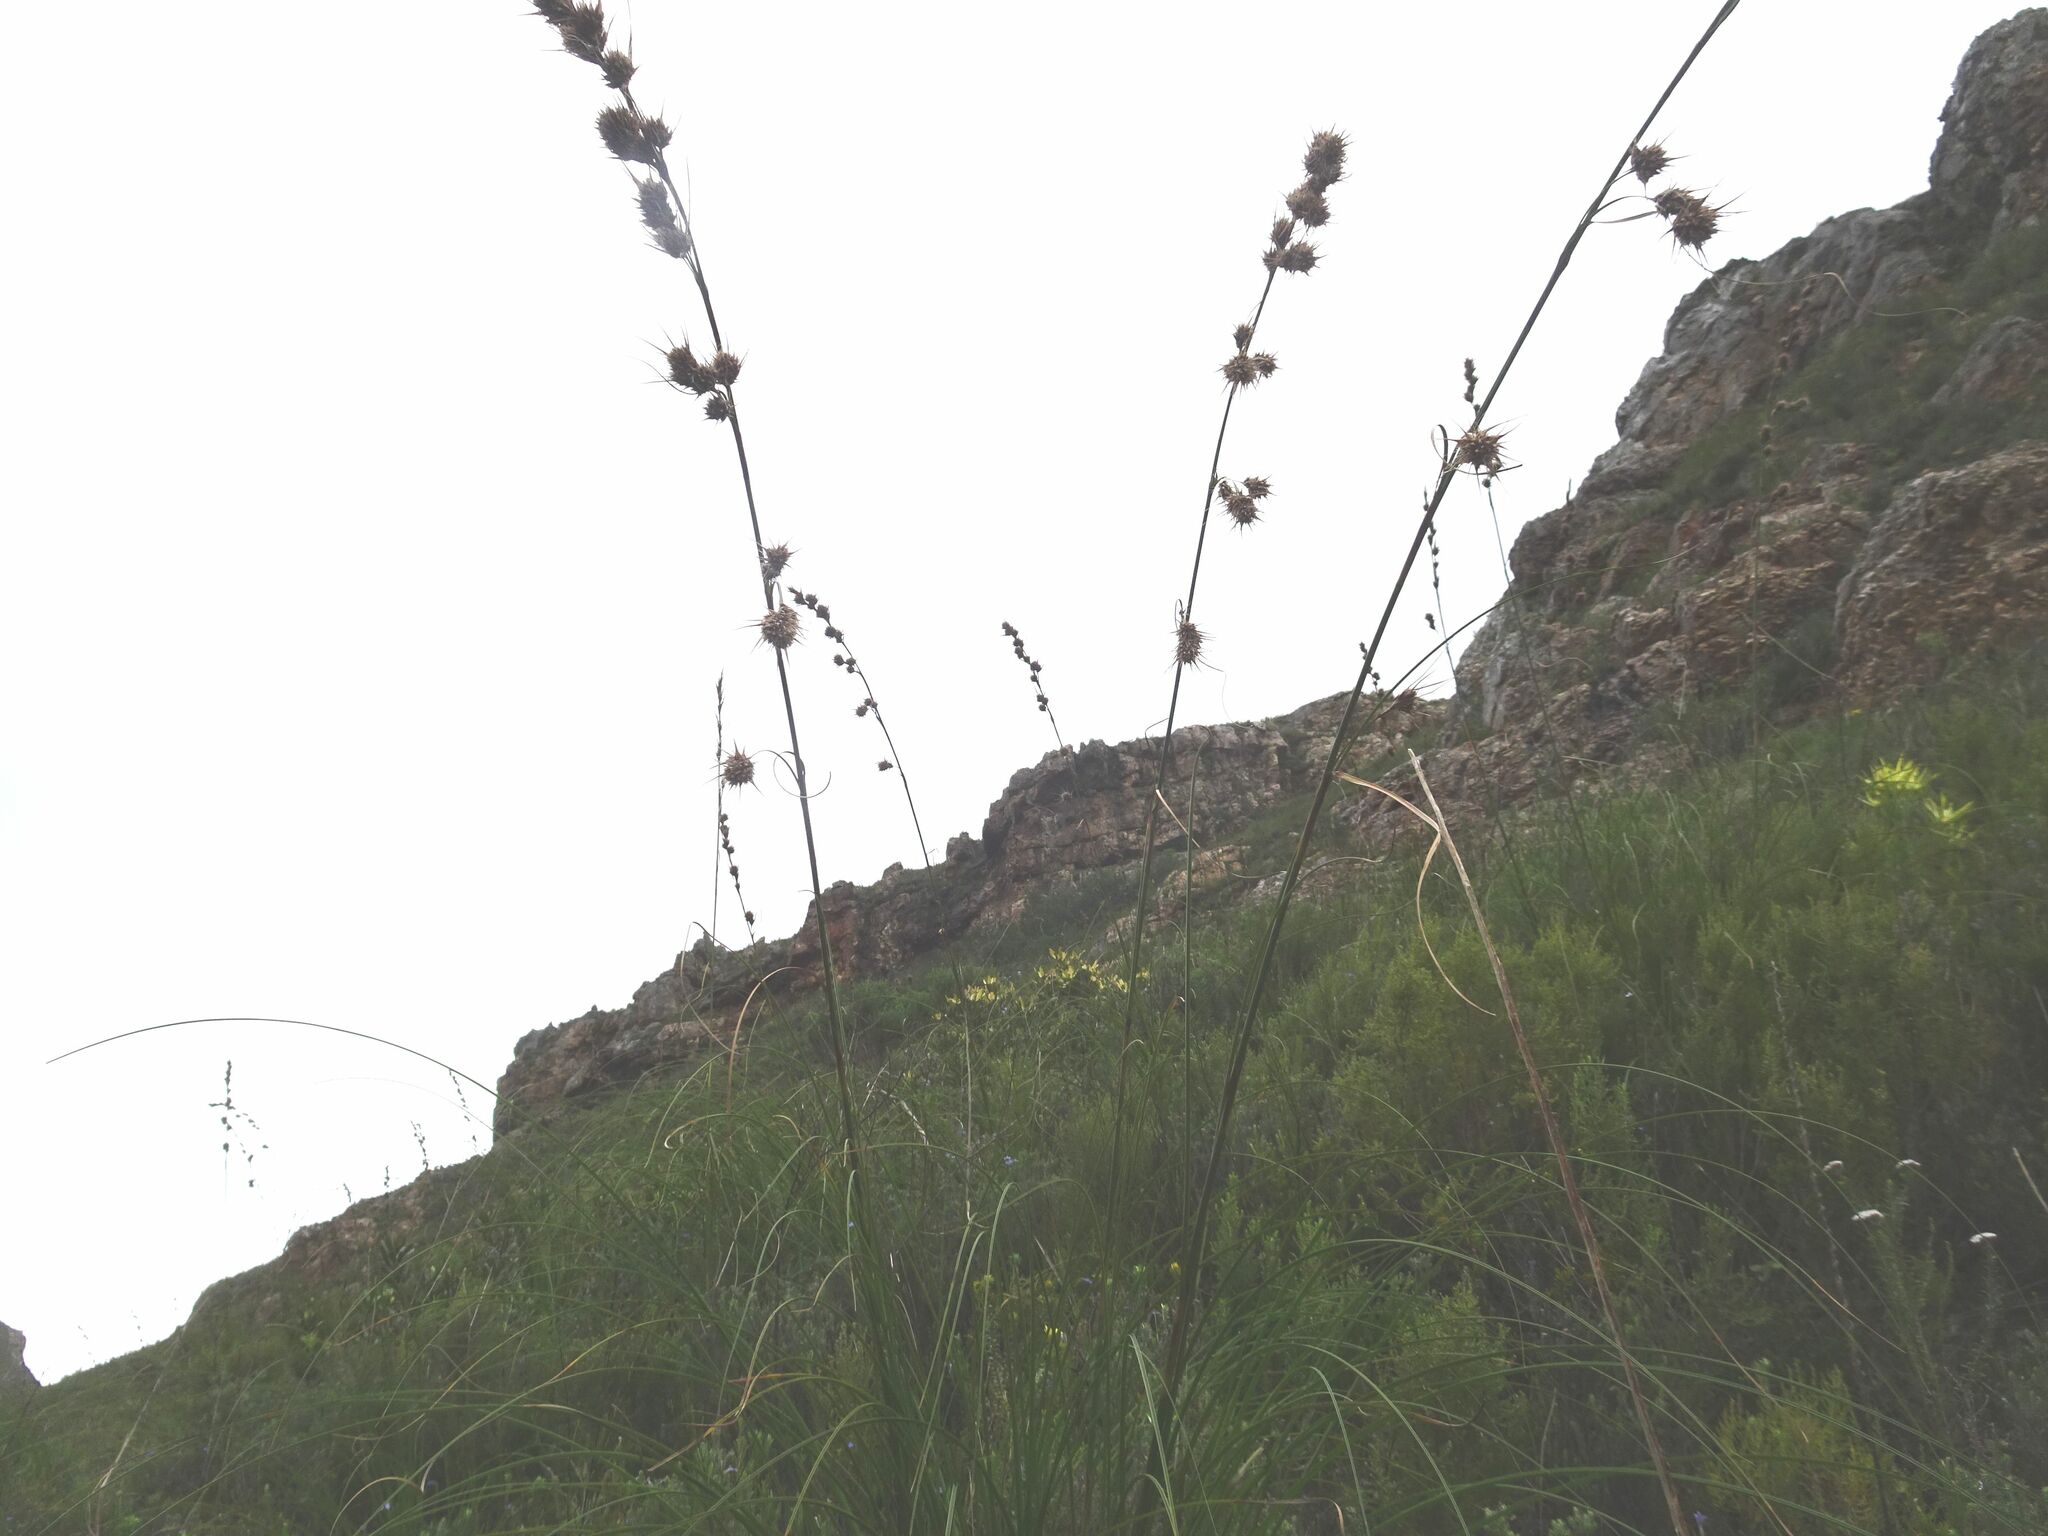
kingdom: Plantae
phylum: Tracheophyta
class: Liliopsida
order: Poales
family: Cyperaceae
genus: Tetraria
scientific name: Tetraria bromoides
